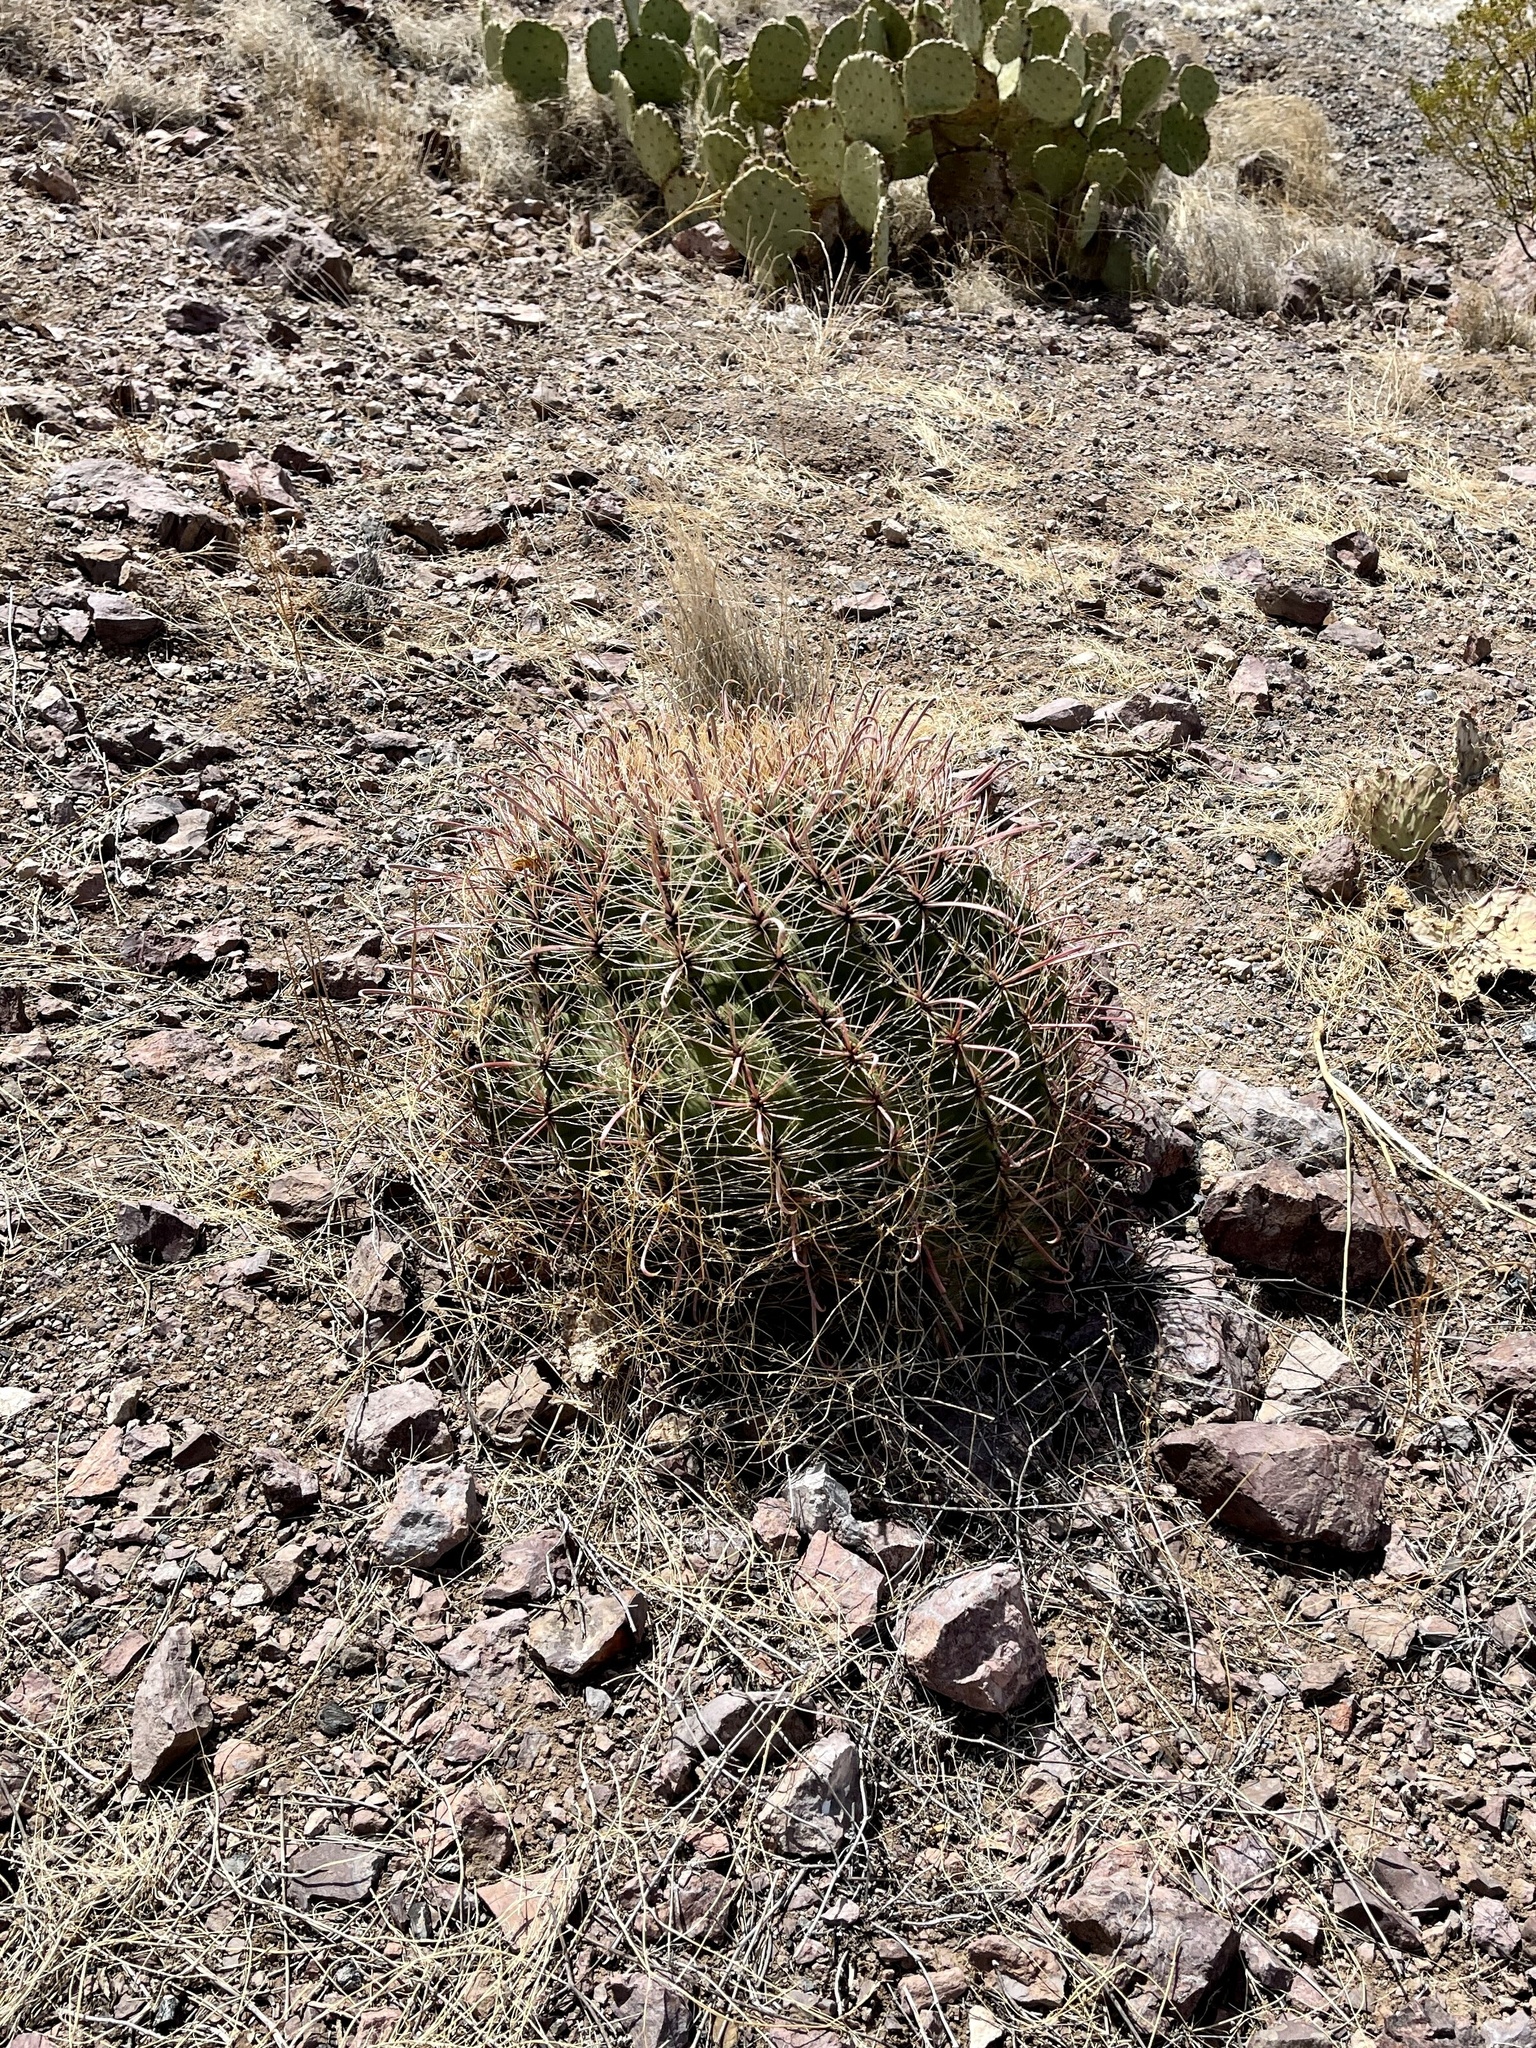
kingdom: Plantae
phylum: Tracheophyta
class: Magnoliopsida
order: Caryophyllales
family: Cactaceae
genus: Ferocactus
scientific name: Ferocactus wislizeni
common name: Candy barrel cactus
